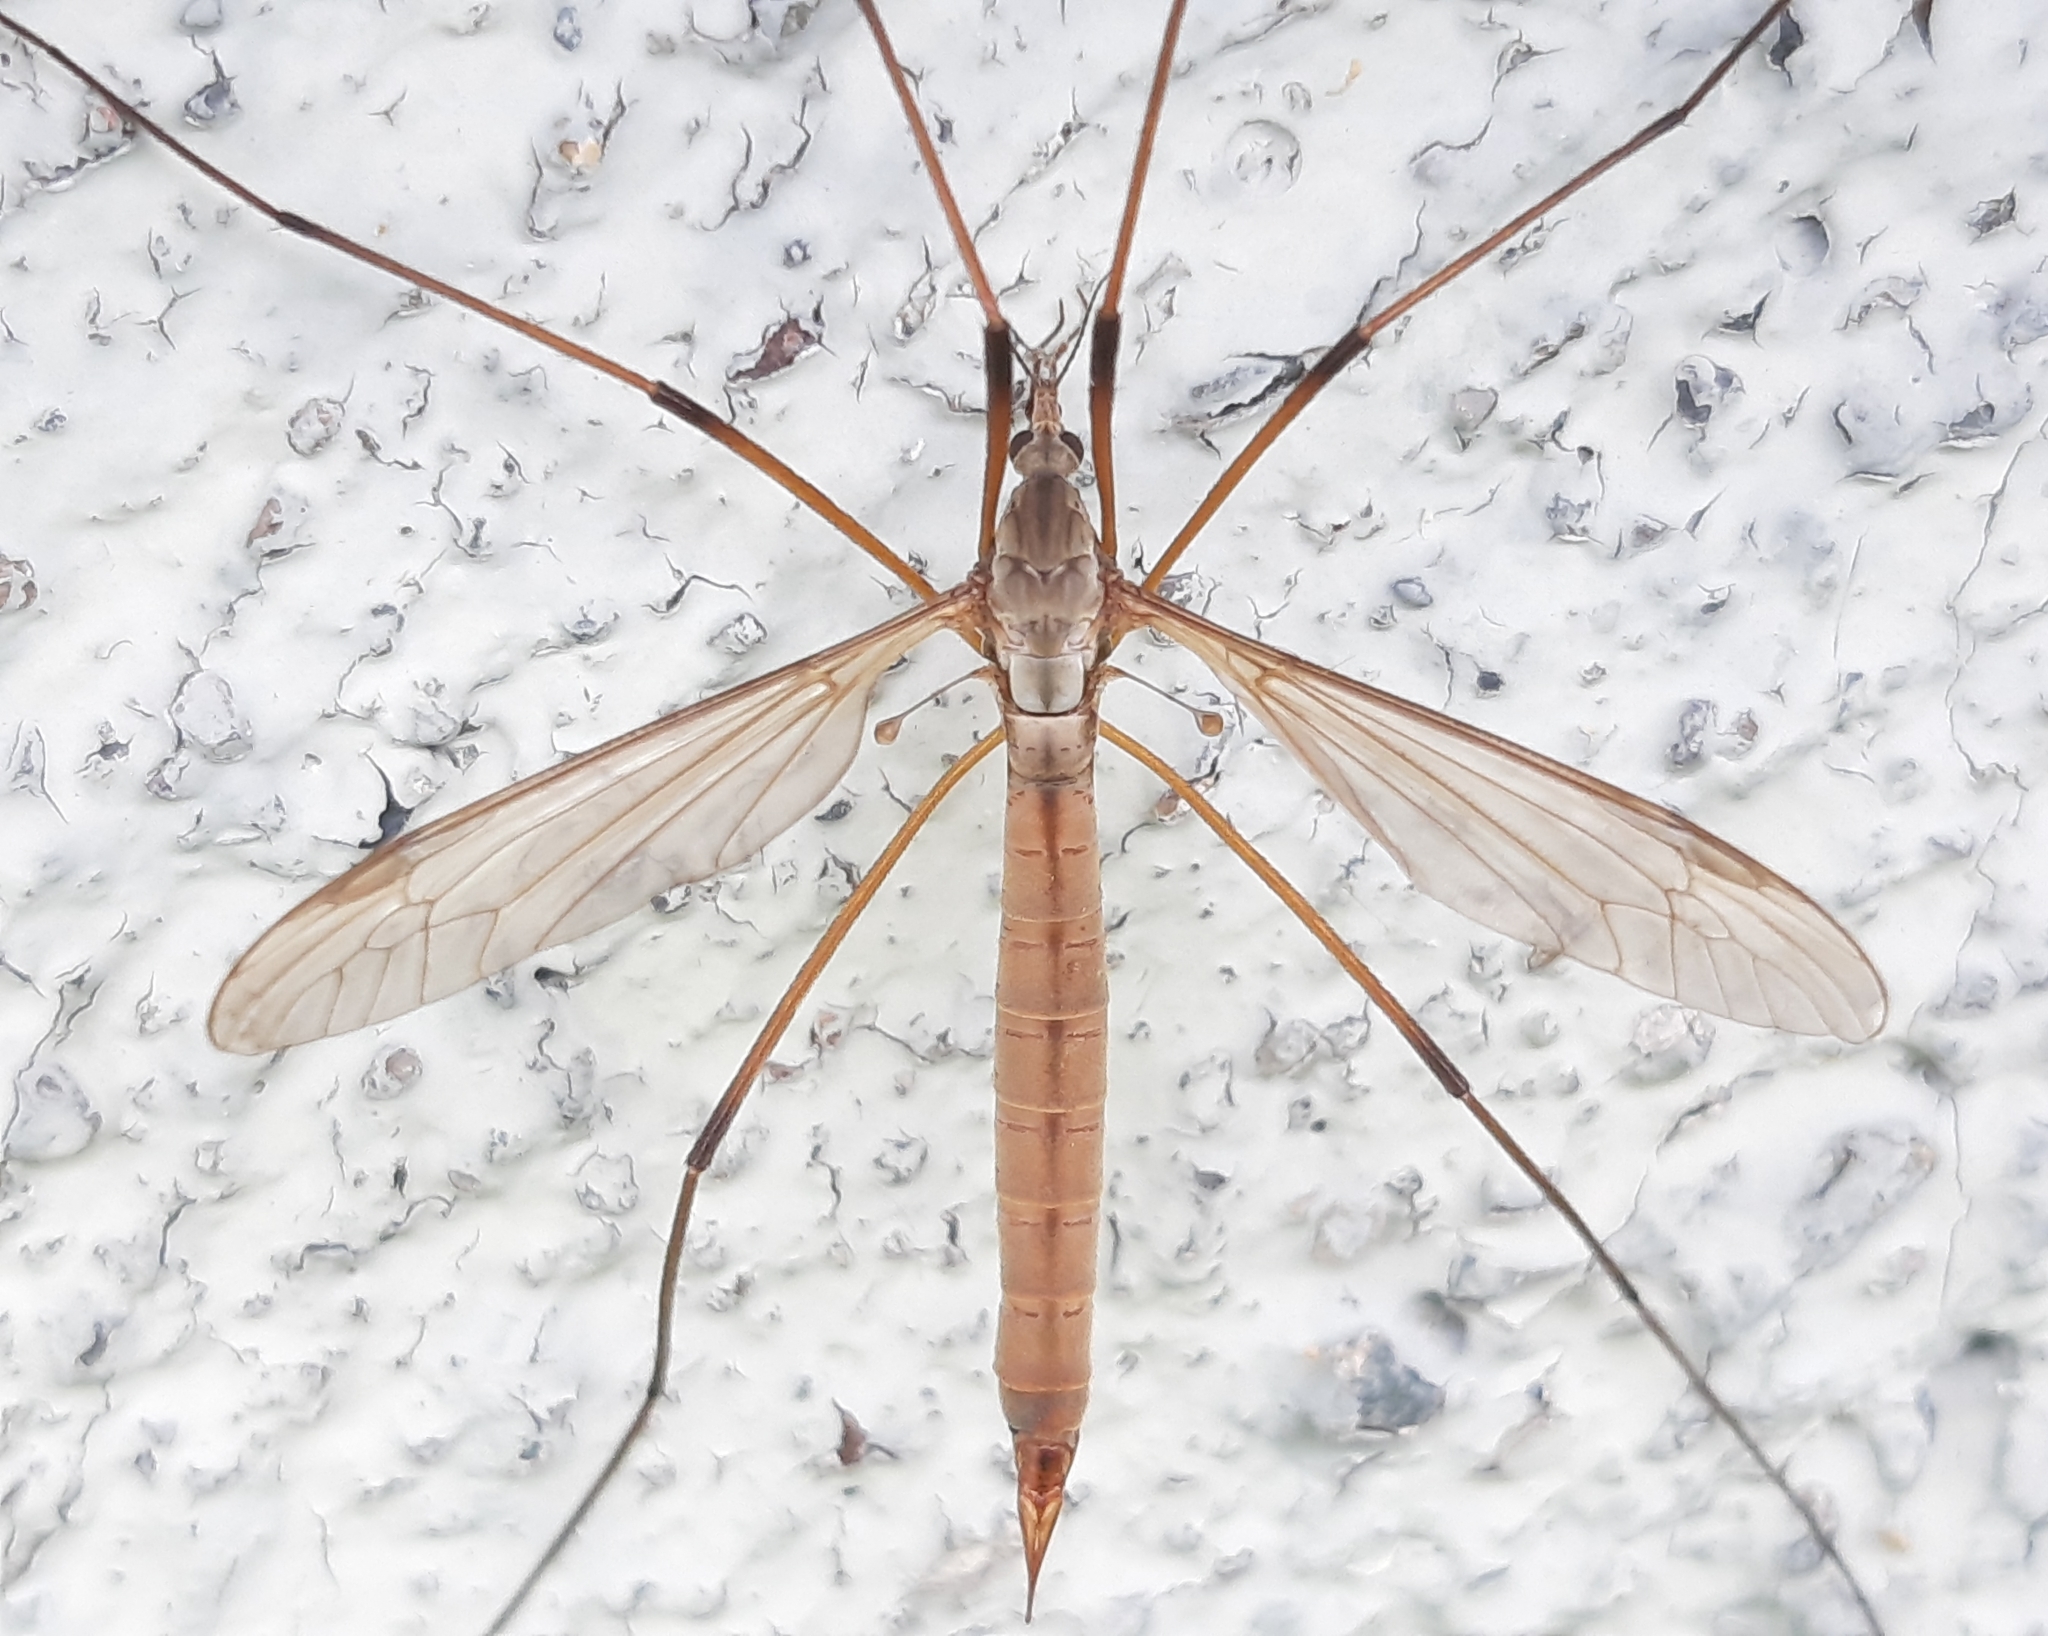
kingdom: Animalia
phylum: Arthropoda
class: Insecta
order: Diptera
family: Tipulidae
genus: Tipula
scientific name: Tipula paludosa
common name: European cranefly
